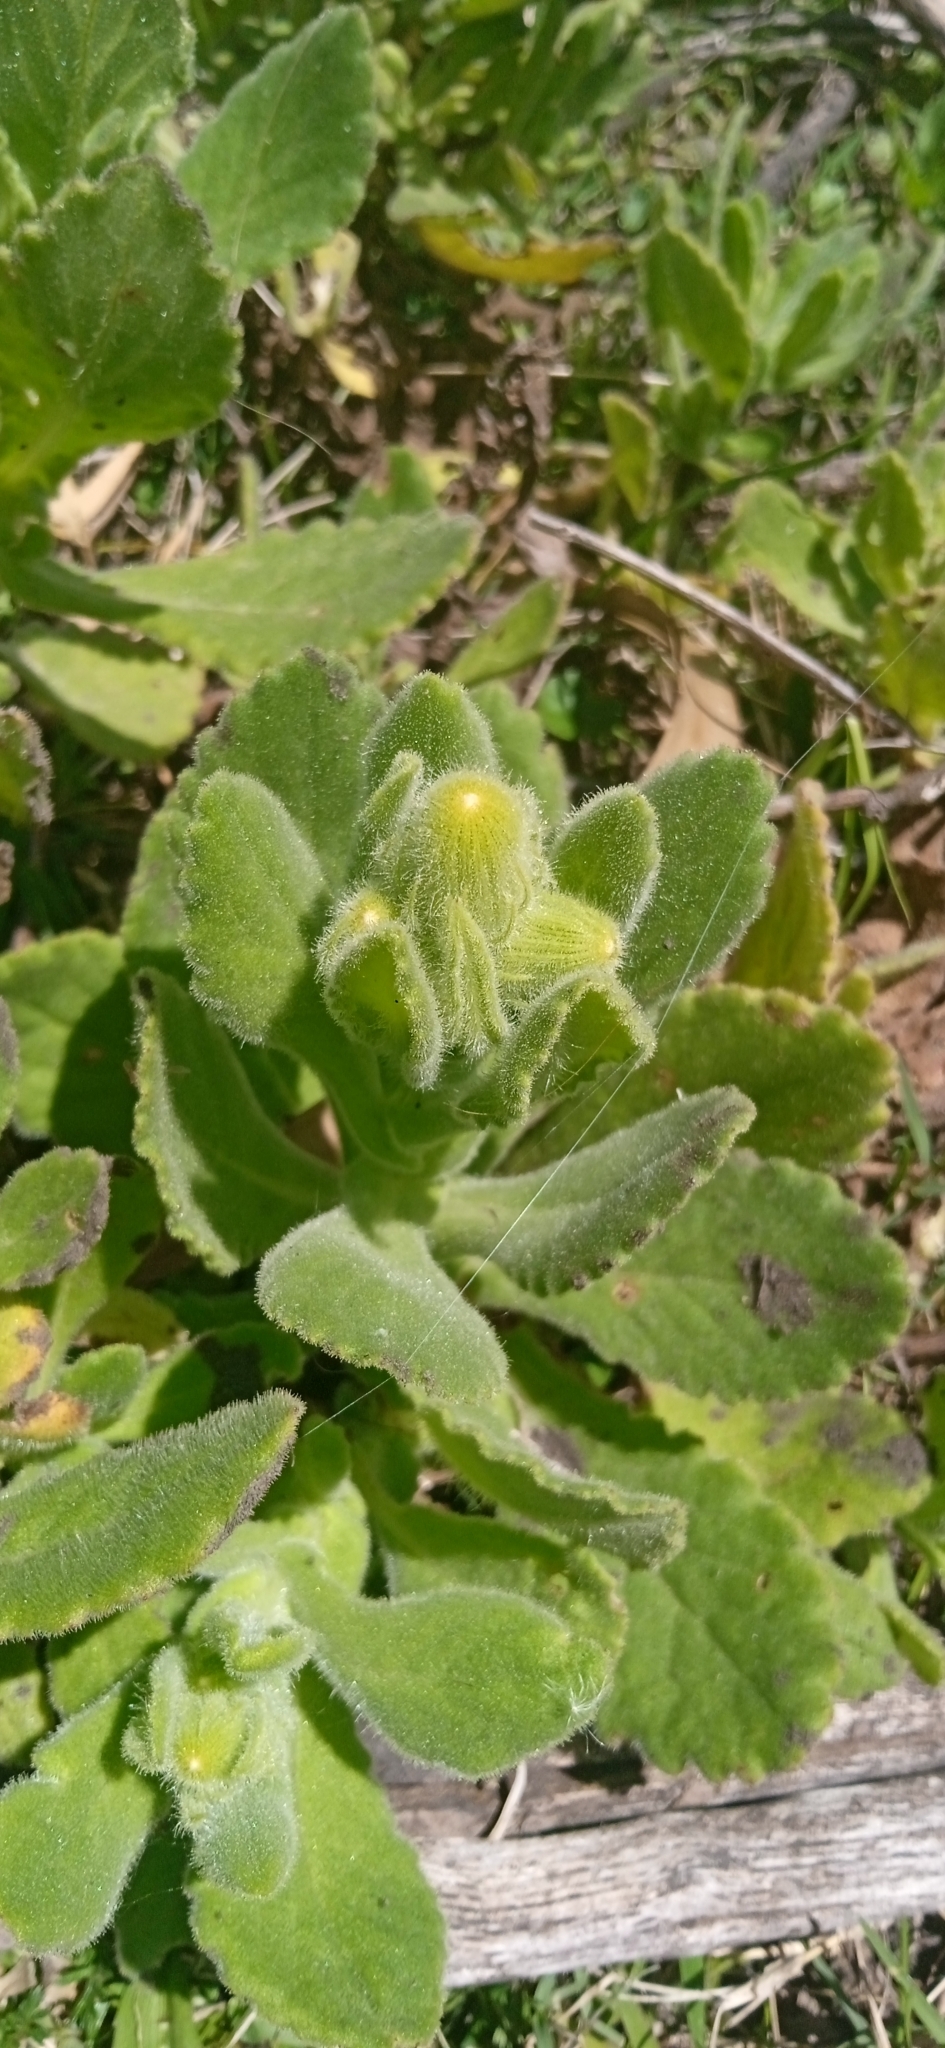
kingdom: Plantae
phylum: Tracheophyta
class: Magnoliopsida
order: Asterales
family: Asteraceae
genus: Senecio
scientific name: Senecio selloi
